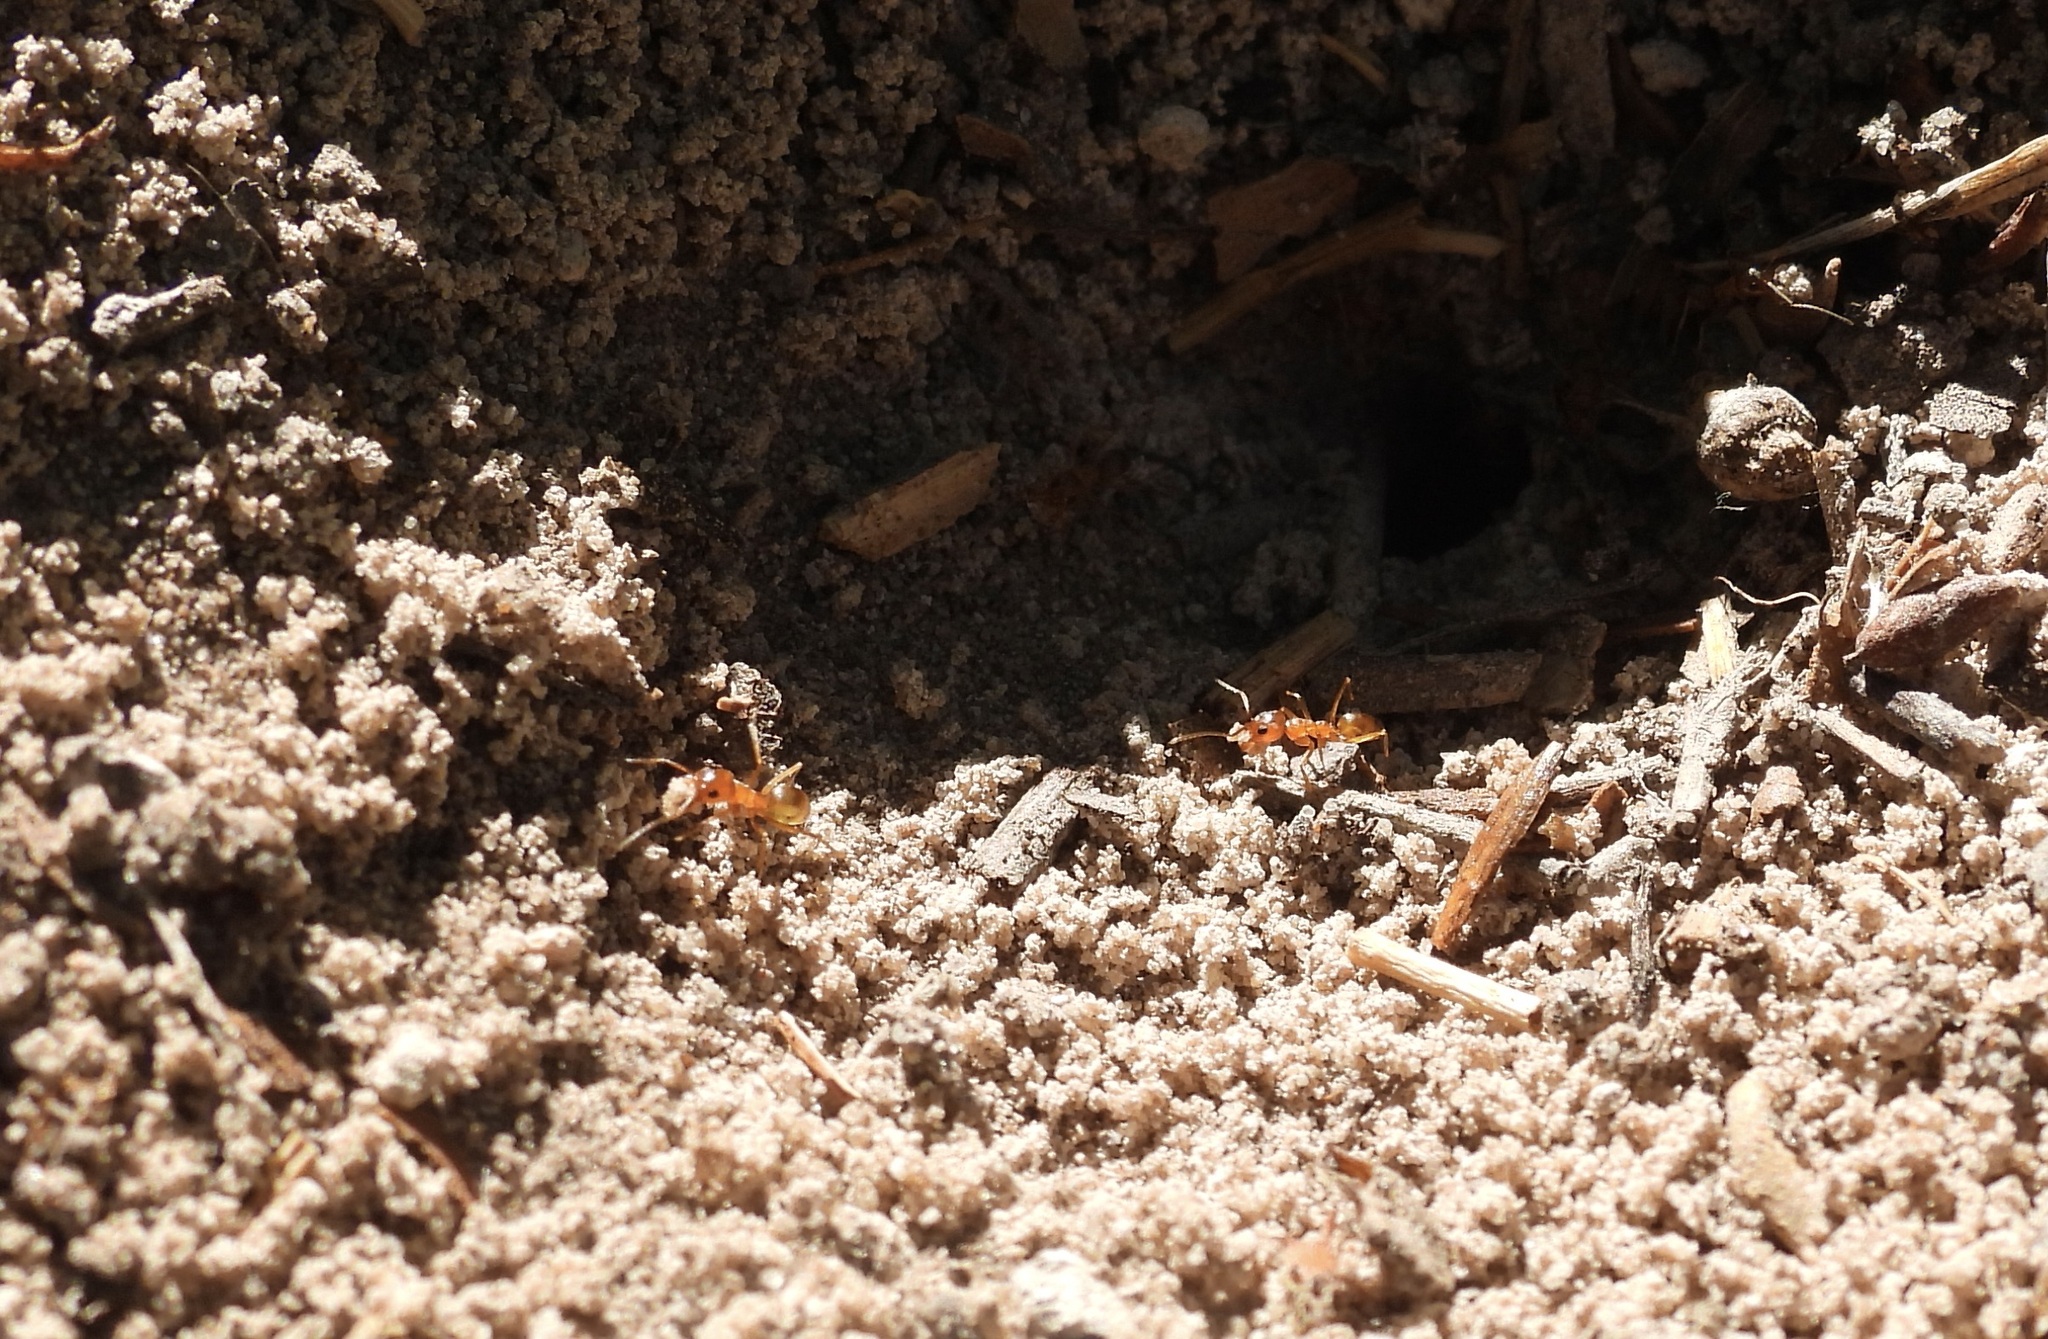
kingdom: Animalia
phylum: Arthropoda
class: Insecta
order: Hymenoptera
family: Formicidae
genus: Dorymyrmex
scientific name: Dorymyrmex flavus
